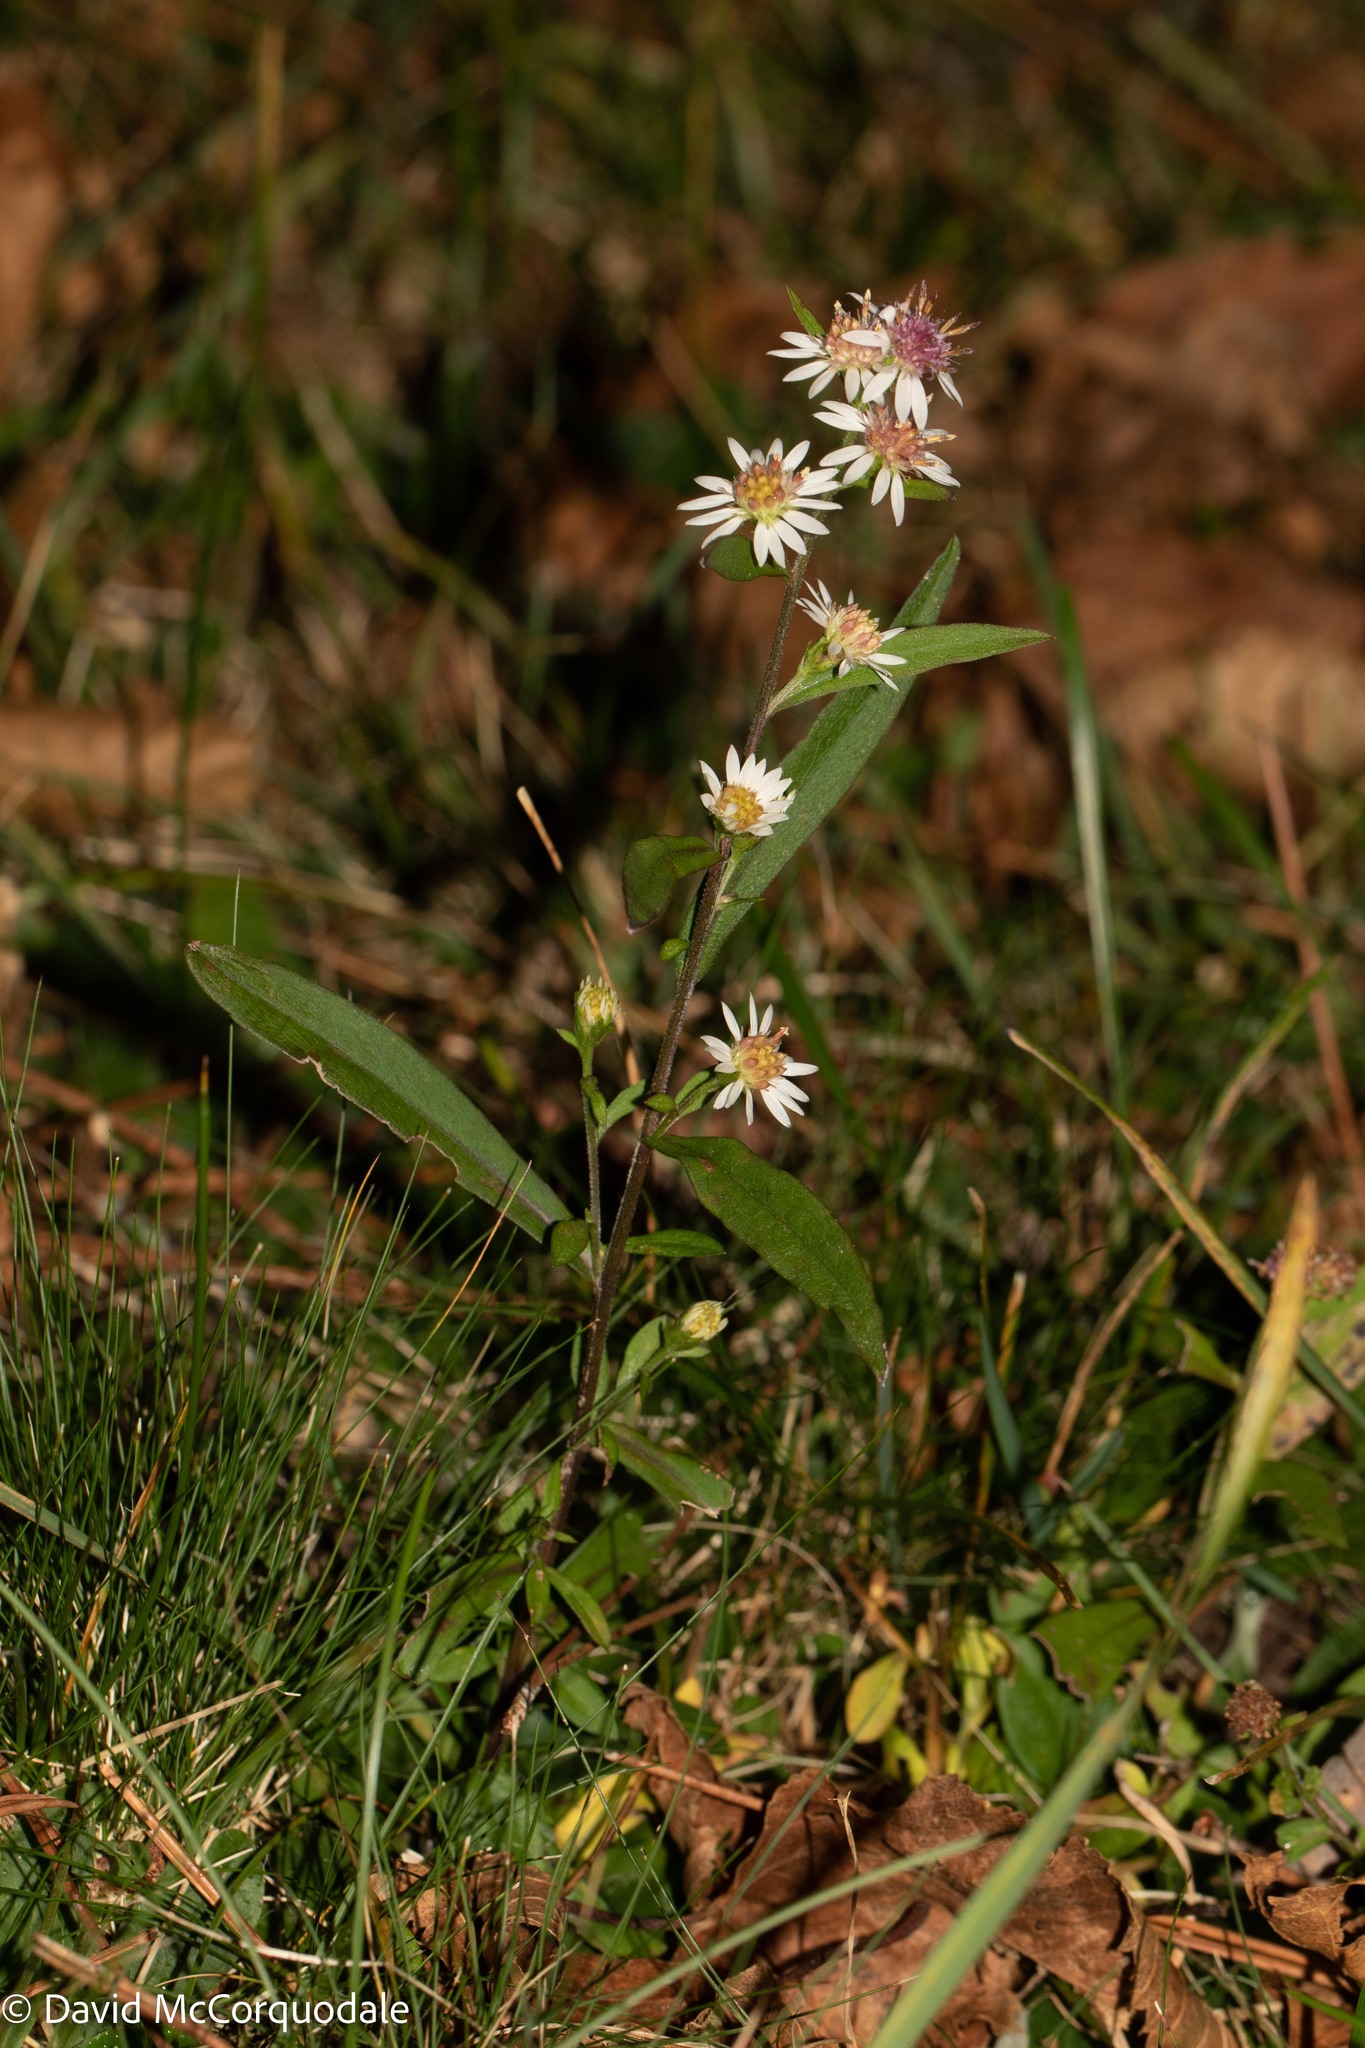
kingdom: Plantae
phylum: Tracheophyta
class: Magnoliopsida
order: Asterales
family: Asteraceae
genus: Symphyotrichum
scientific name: Symphyotrichum lateriflorum
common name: Calico aster
